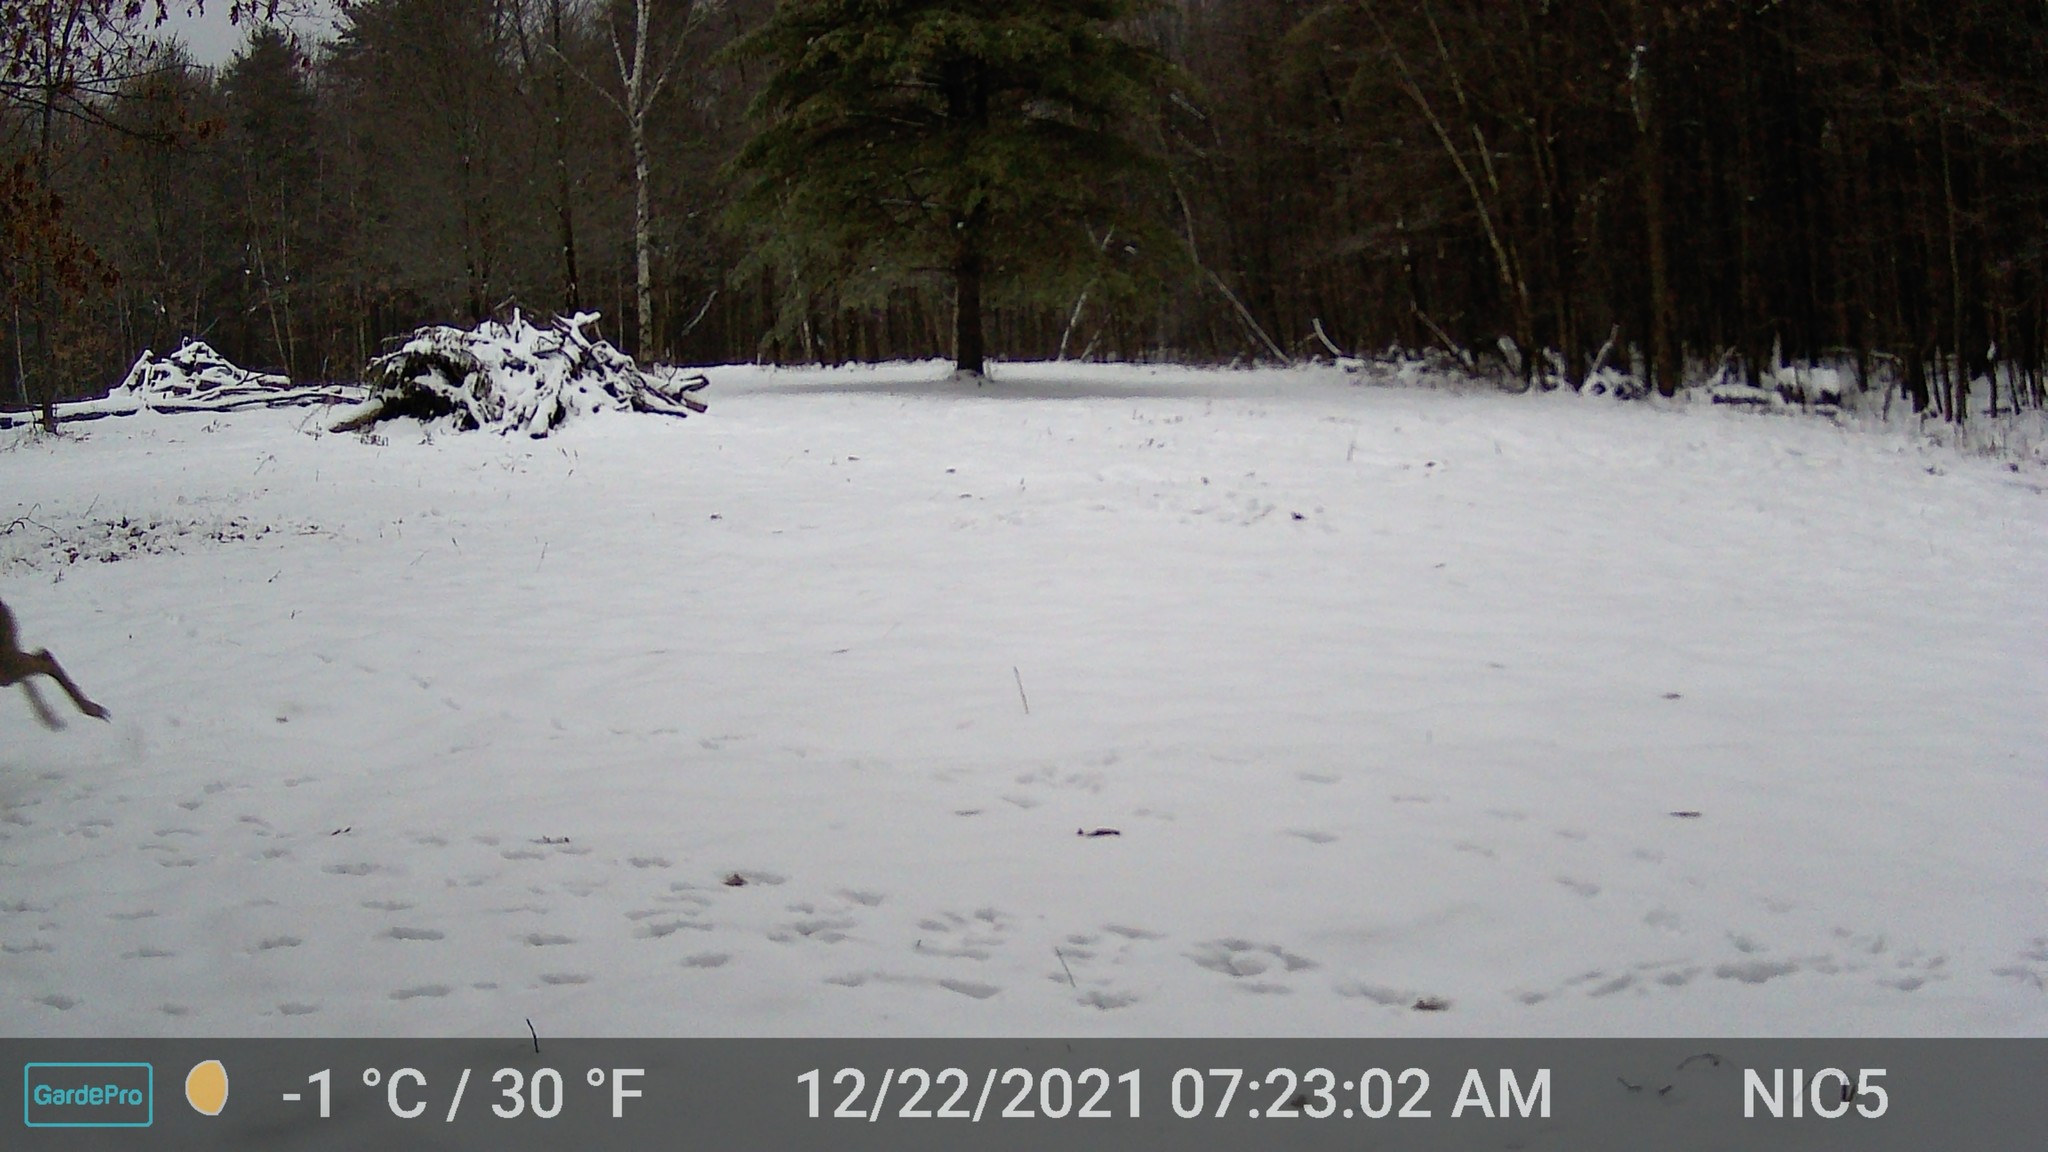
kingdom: Animalia
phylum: Chordata
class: Mammalia
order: Artiodactyla
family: Cervidae
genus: Odocoileus
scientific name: Odocoileus virginianus
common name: White-tailed deer
